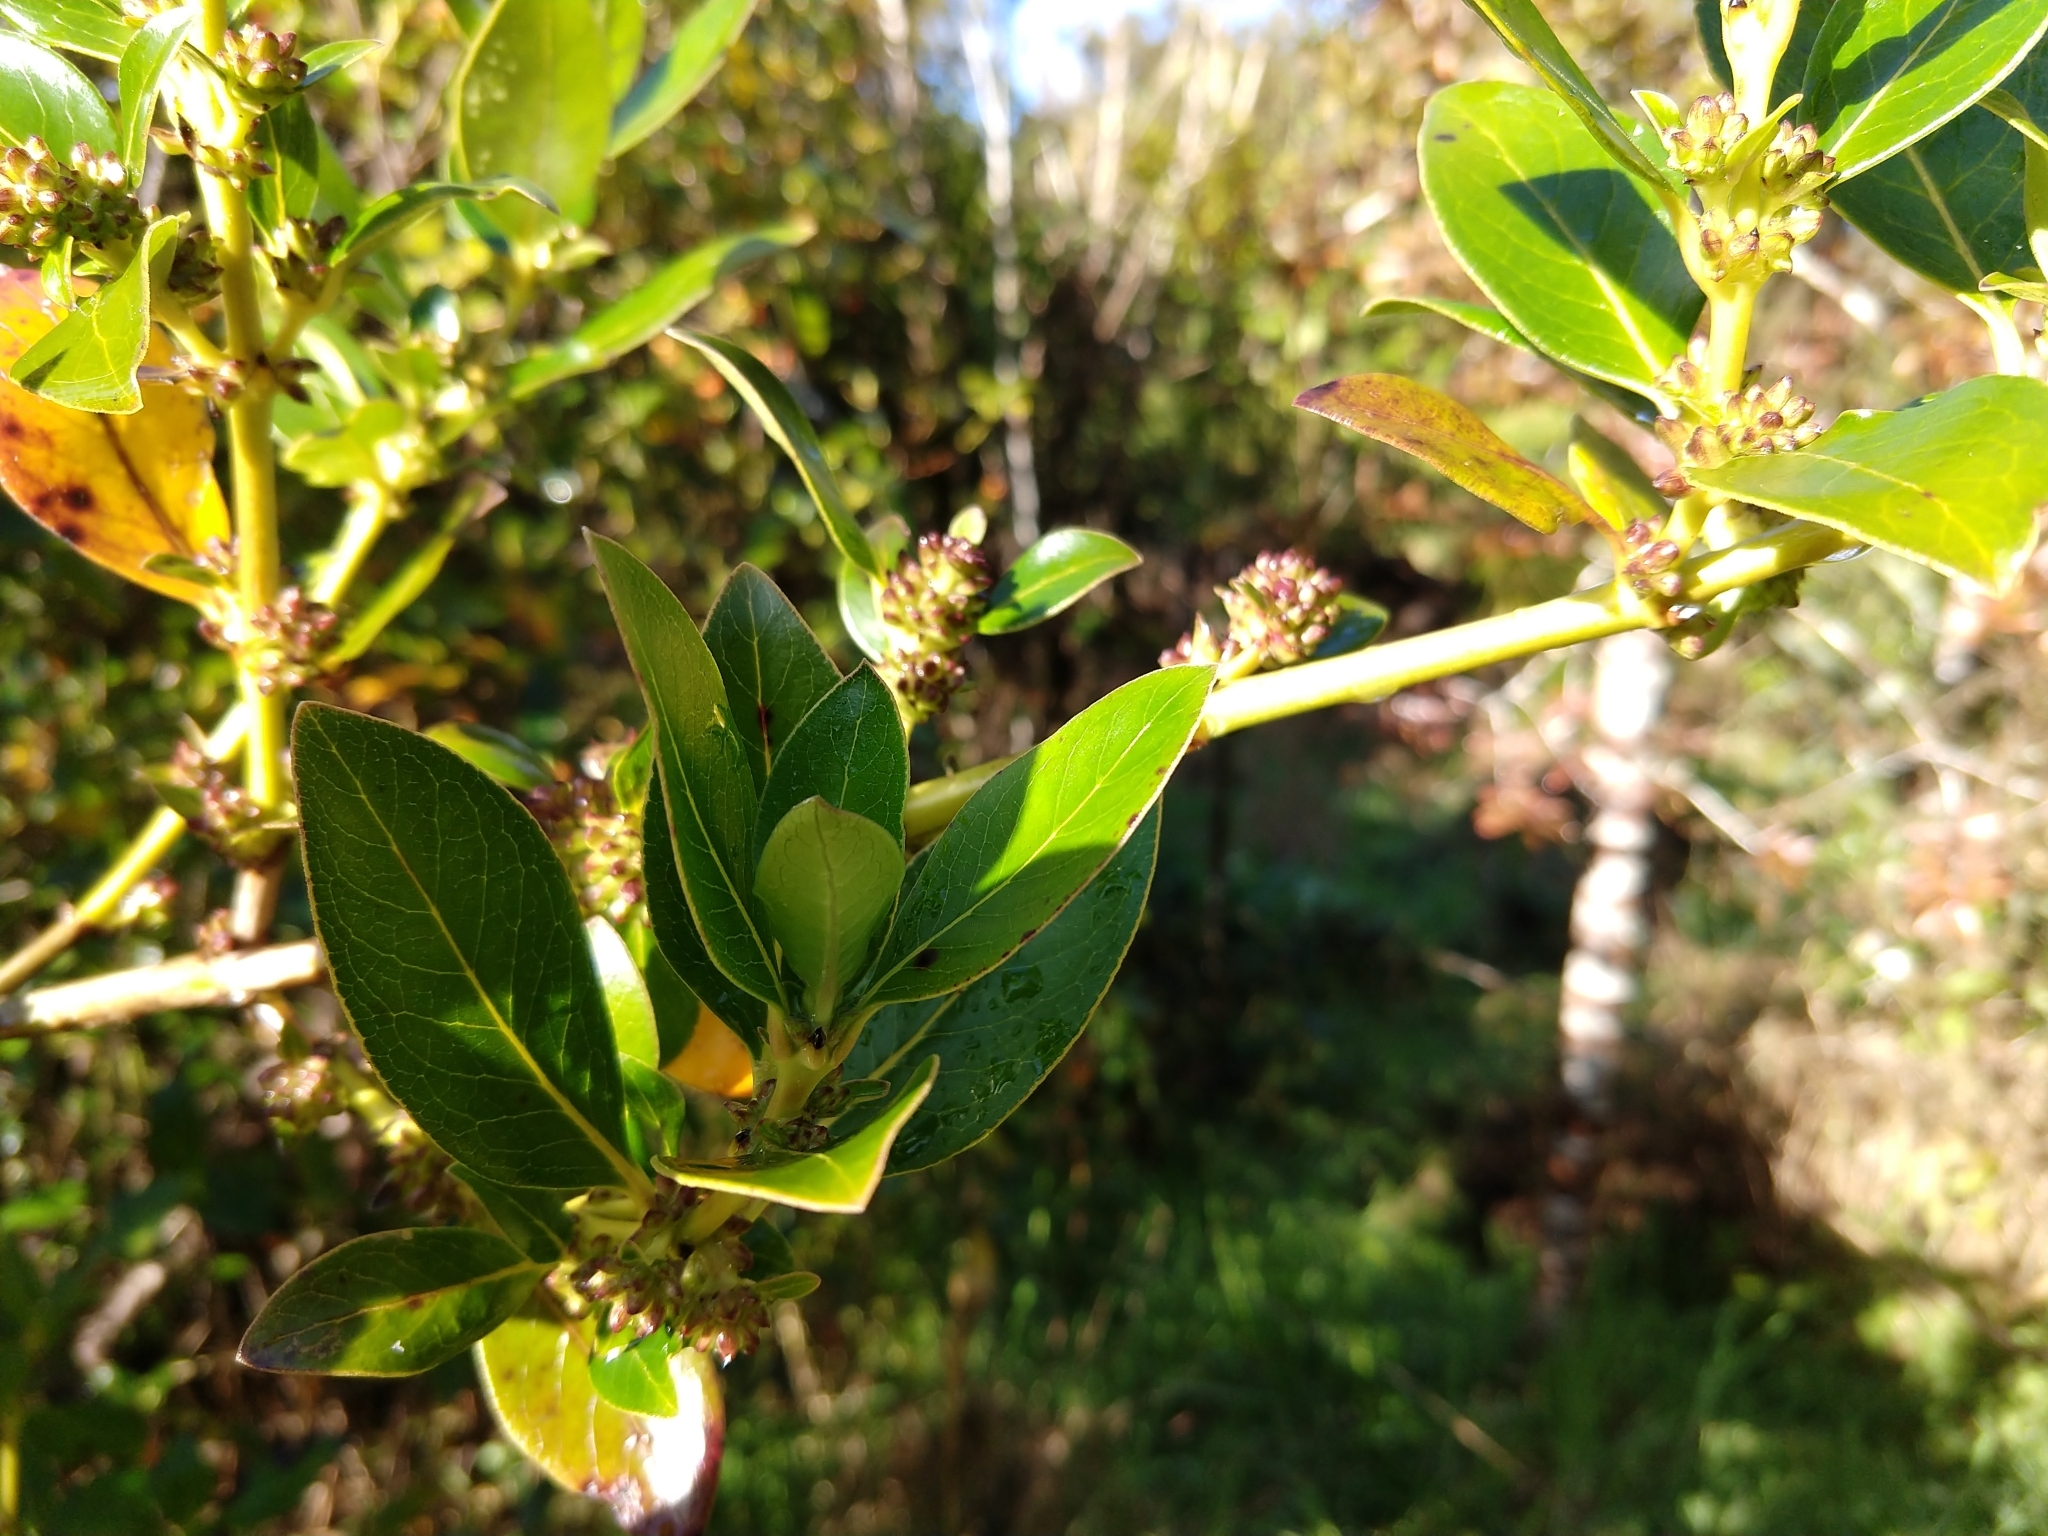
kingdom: Plantae
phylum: Tracheophyta
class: Magnoliopsida
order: Gentianales
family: Rubiaceae
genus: Coprosma
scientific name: Coprosma robusta
